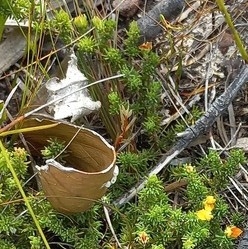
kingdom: Animalia
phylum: Arthropoda
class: Arachnida
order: Araneae
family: Sparassidae
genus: Palystes
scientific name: Palystes superciliosus
